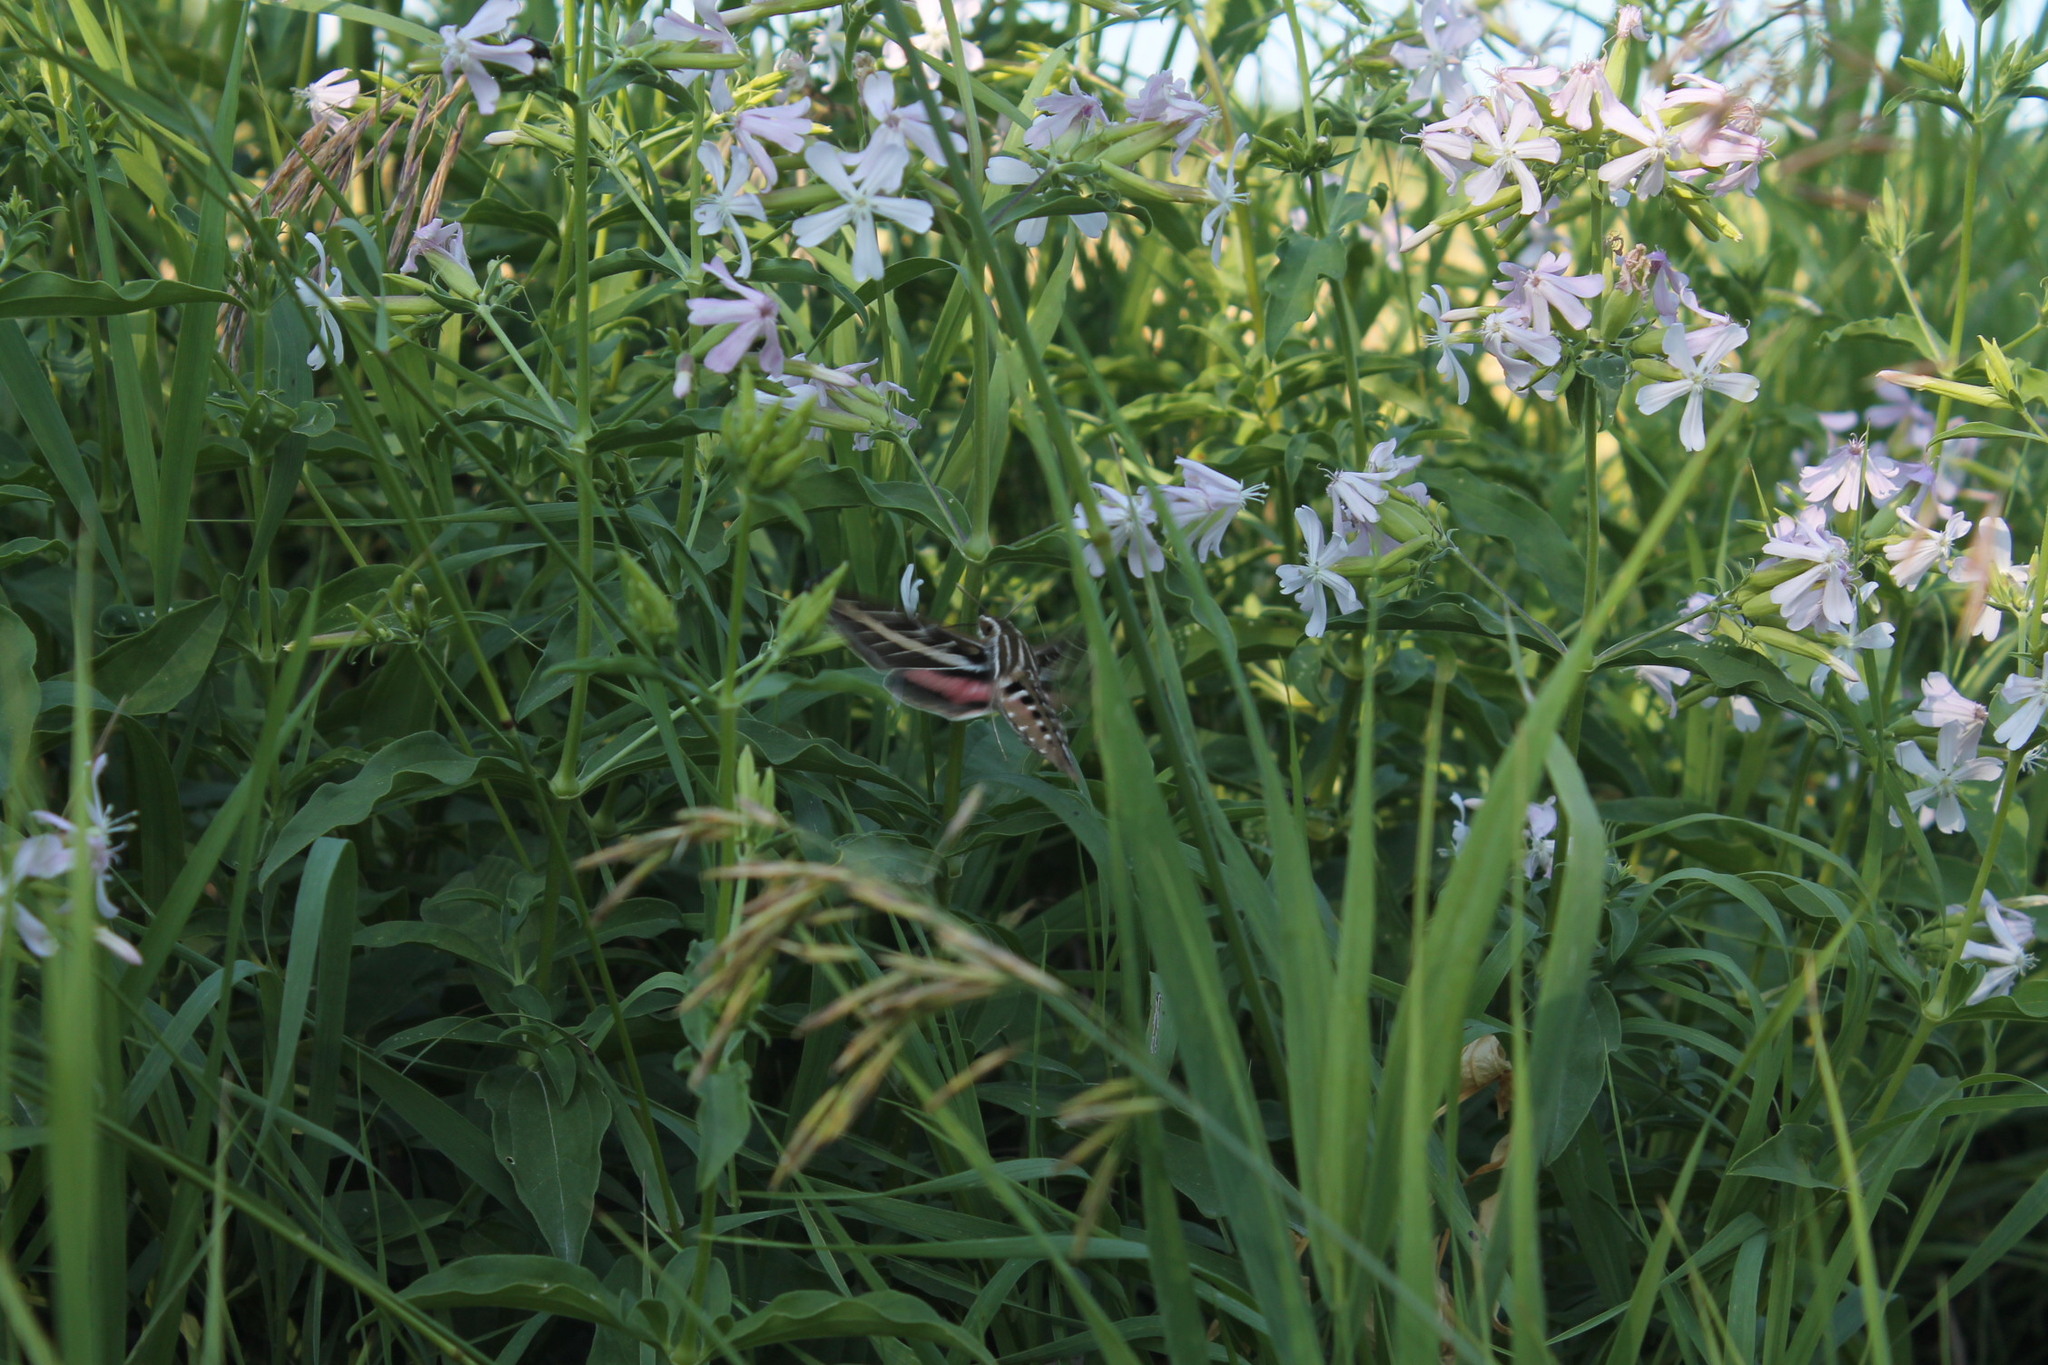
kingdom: Animalia
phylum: Arthropoda
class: Insecta
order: Lepidoptera
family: Sphingidae
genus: Hyles
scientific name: Hyles lineata
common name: White-lined sphinx
